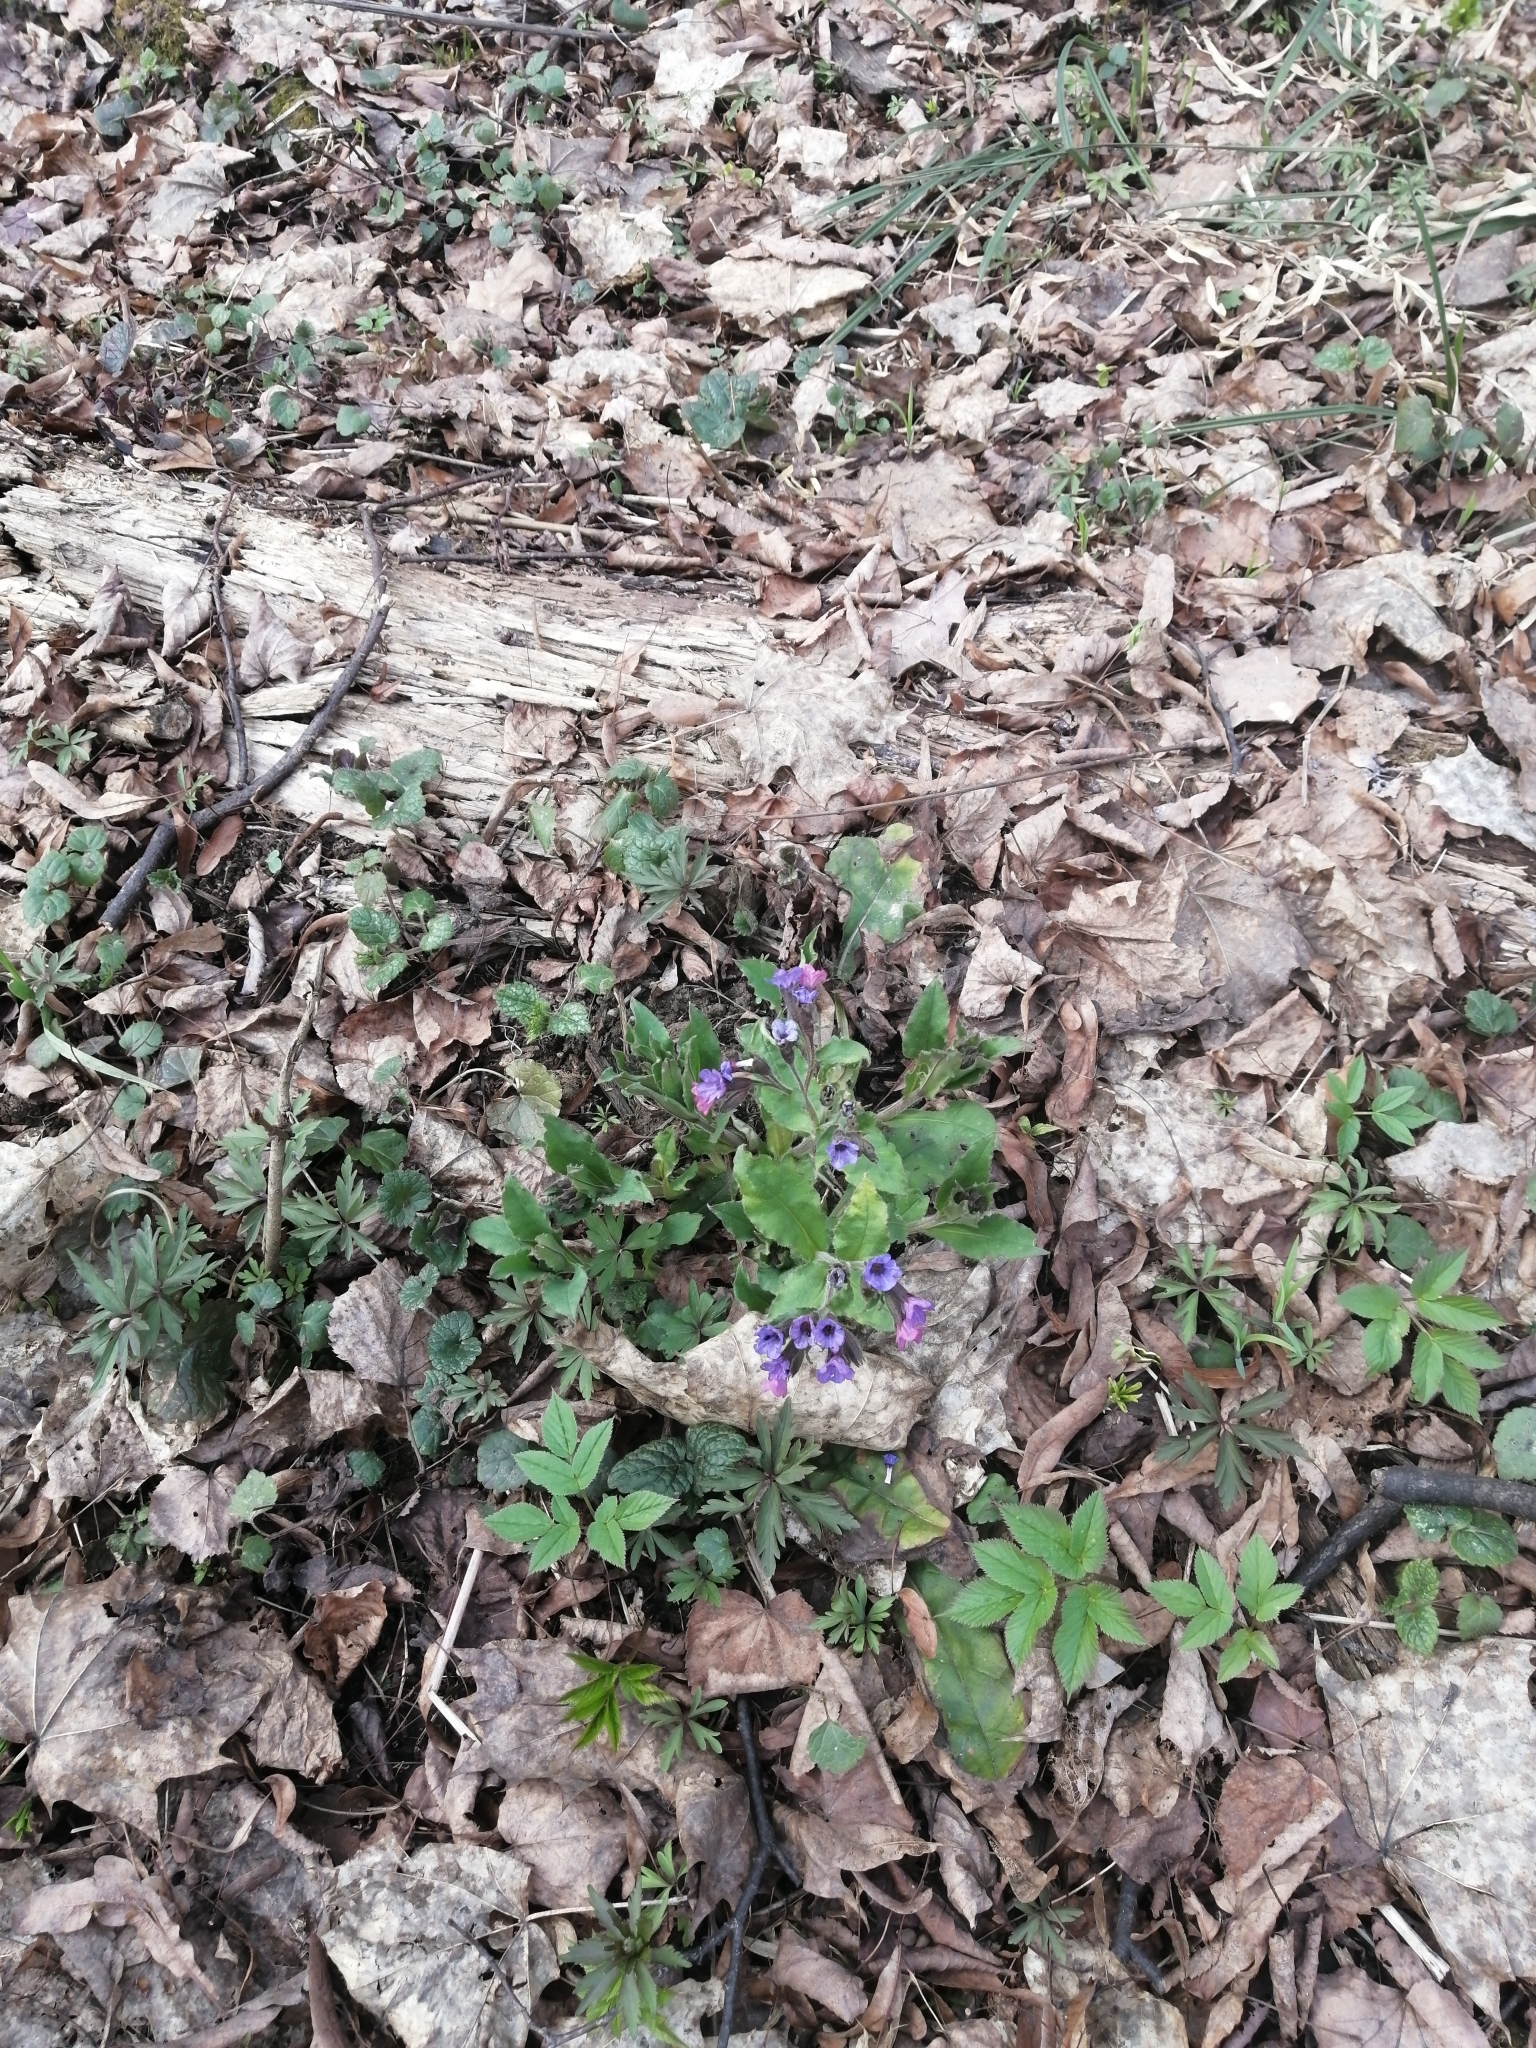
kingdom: Plantae
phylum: Tracheophyta
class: Magnoliopsida
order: Boraginales
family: Boraginaceae
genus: Pulmonaria
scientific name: Pulmonaria obscura
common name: Suffolk lungwort
